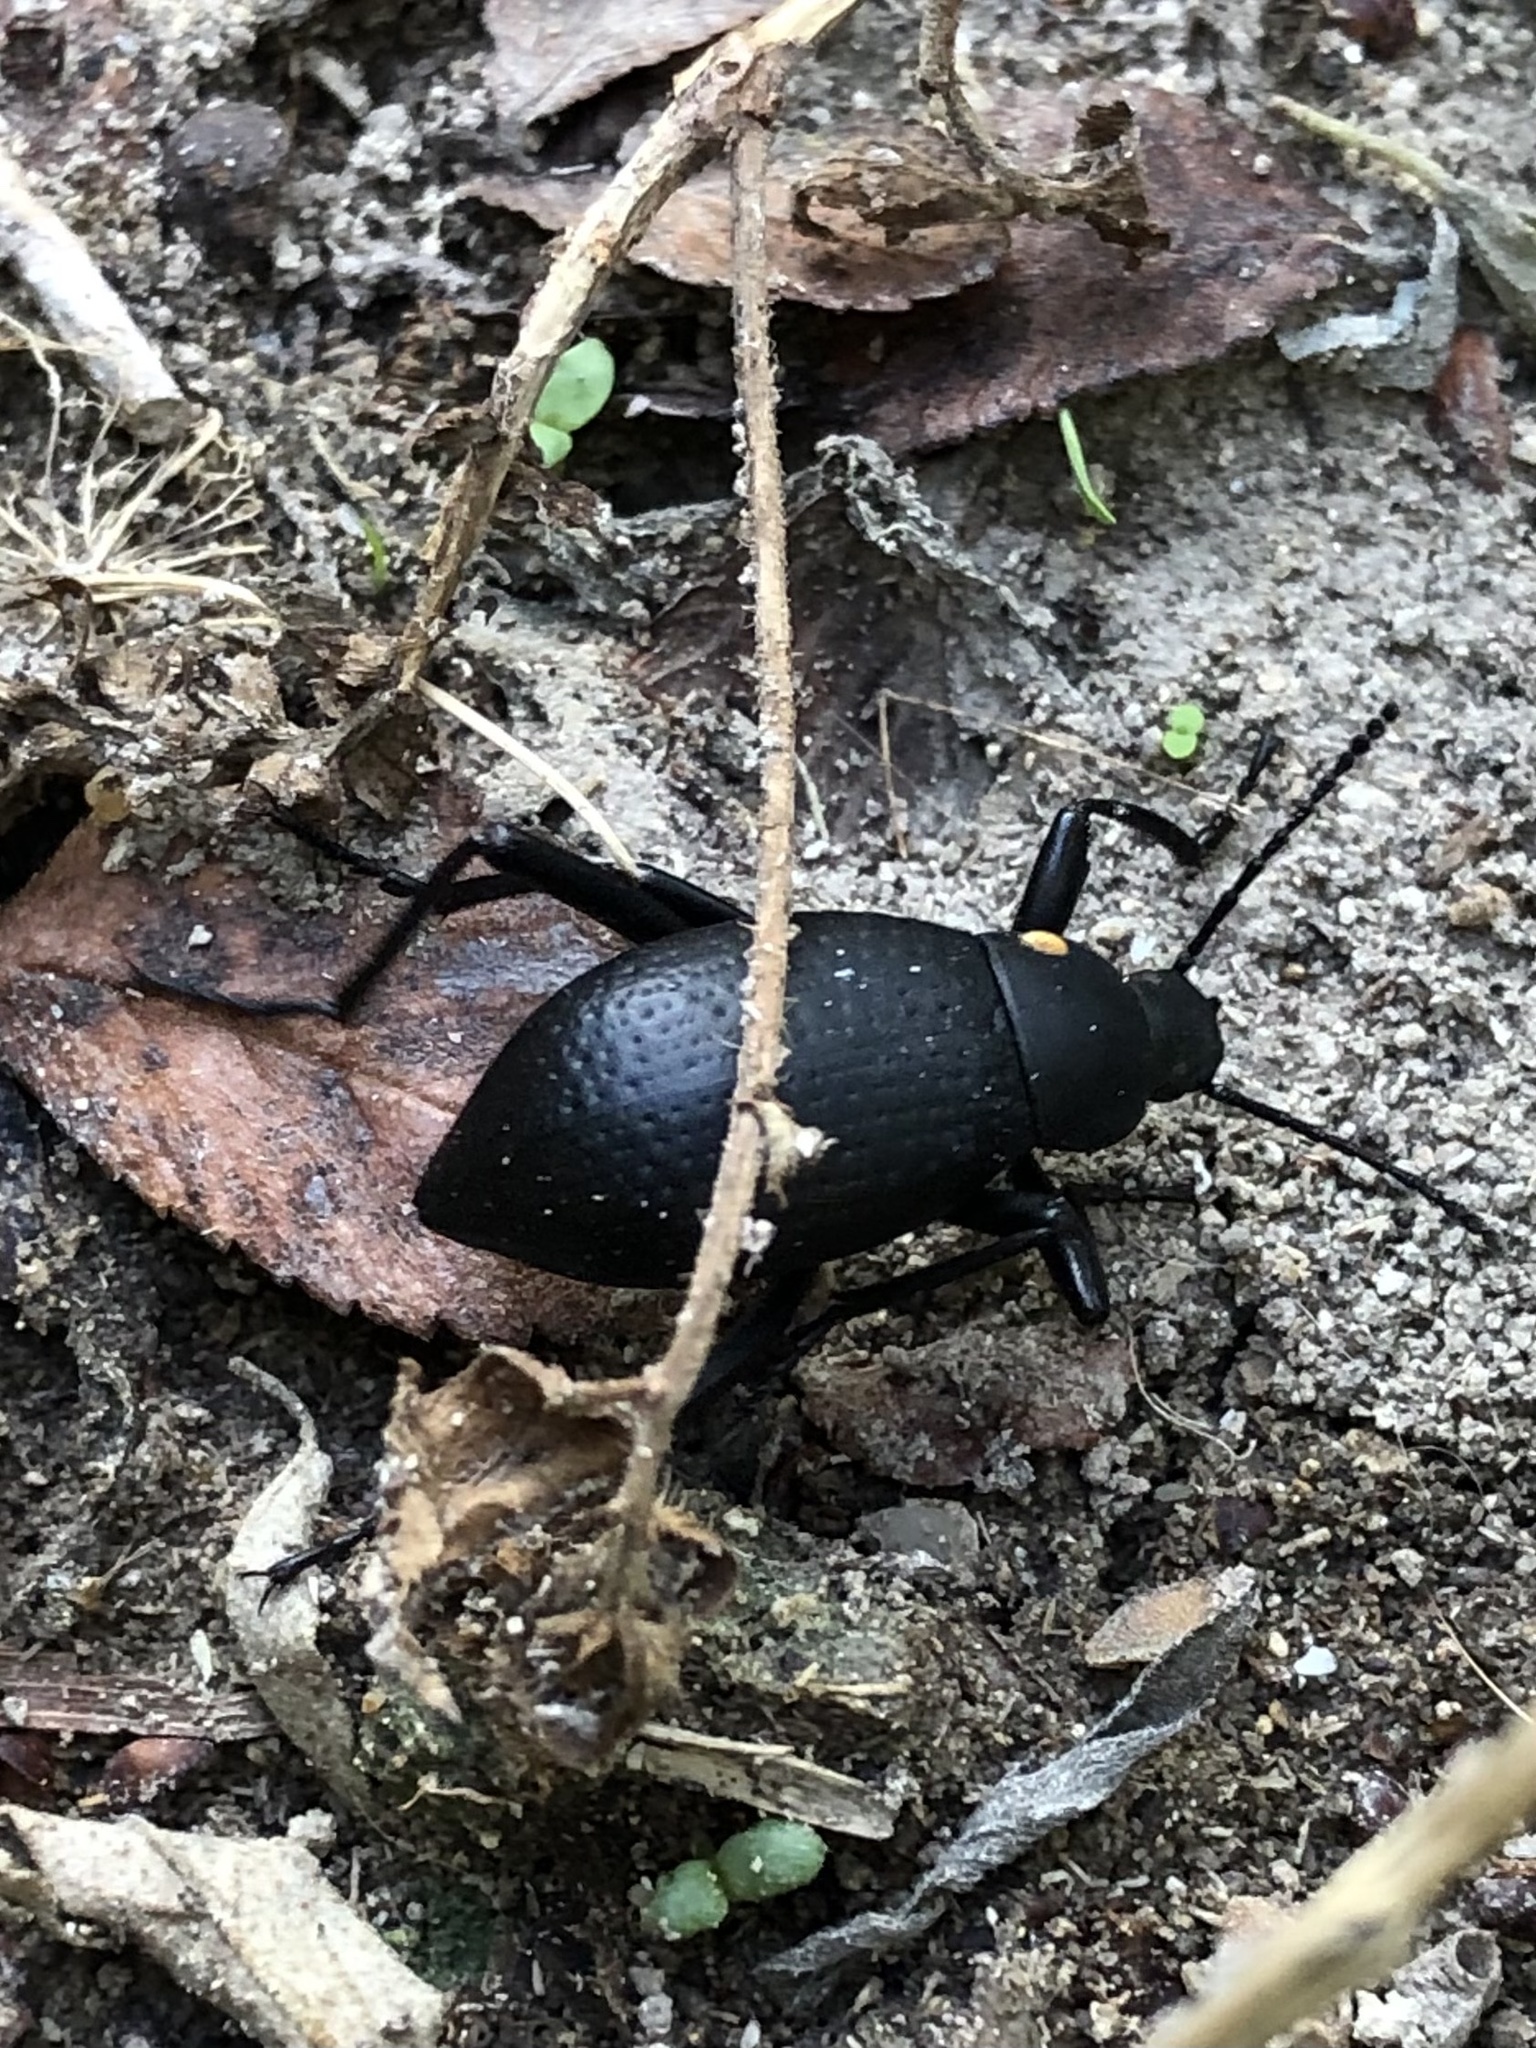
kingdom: Animalia
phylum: Arthropoda
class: Insecta
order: Coleoptera
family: Tenebrionidae
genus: Eleodes
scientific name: Eleodes goryi
